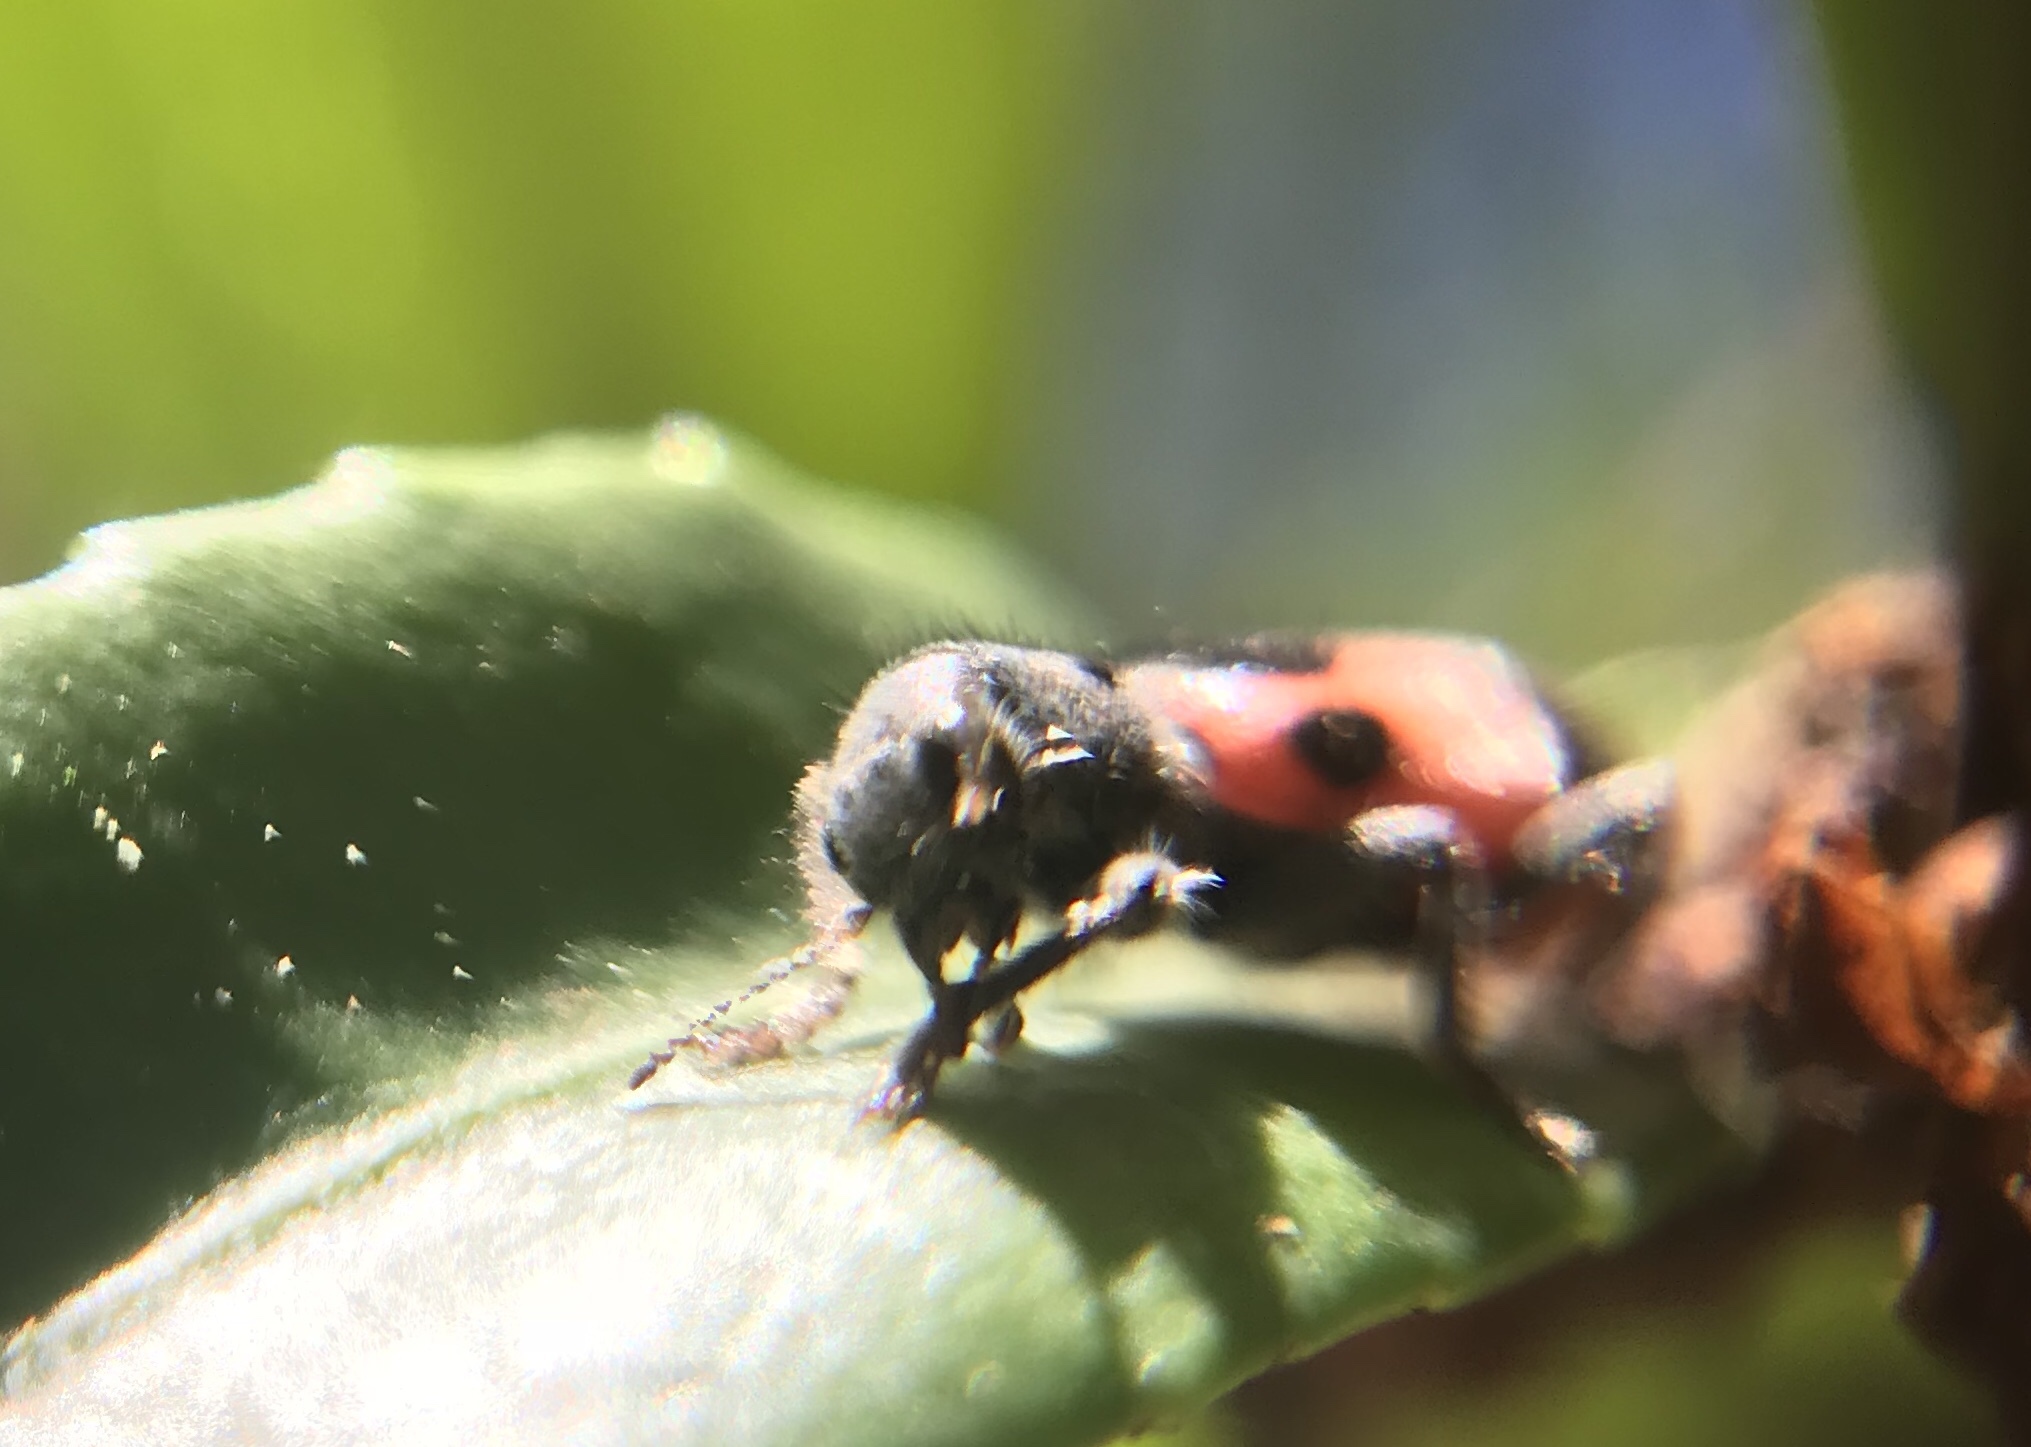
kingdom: Animalia
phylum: Arthropoda
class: Insecta
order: Coleoptera
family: Cleridae
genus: Enoclerus
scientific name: Enoclerus eximius
